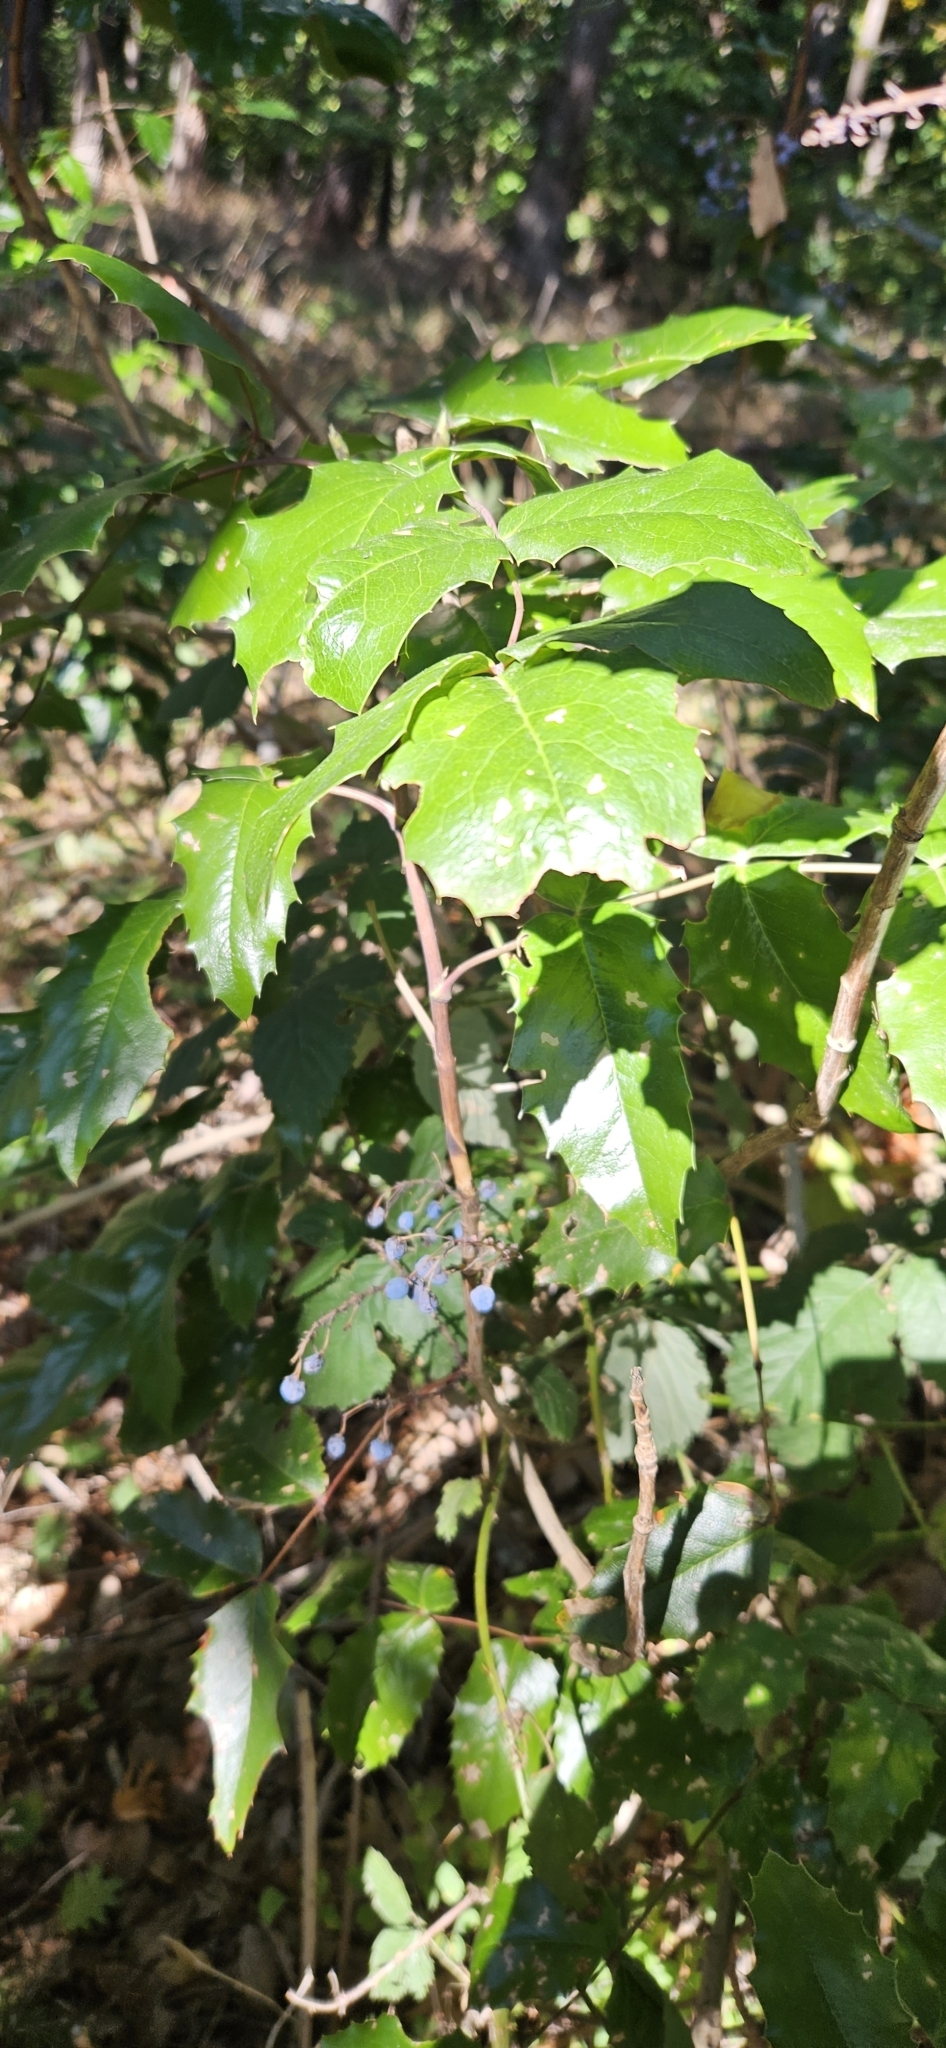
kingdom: Plantae
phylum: Tracheophyta
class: Magnoliopsida
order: Ranunculales
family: Berberidaceae
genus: Mahonia
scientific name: Mahonia aquifolium
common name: Oregon-grape
